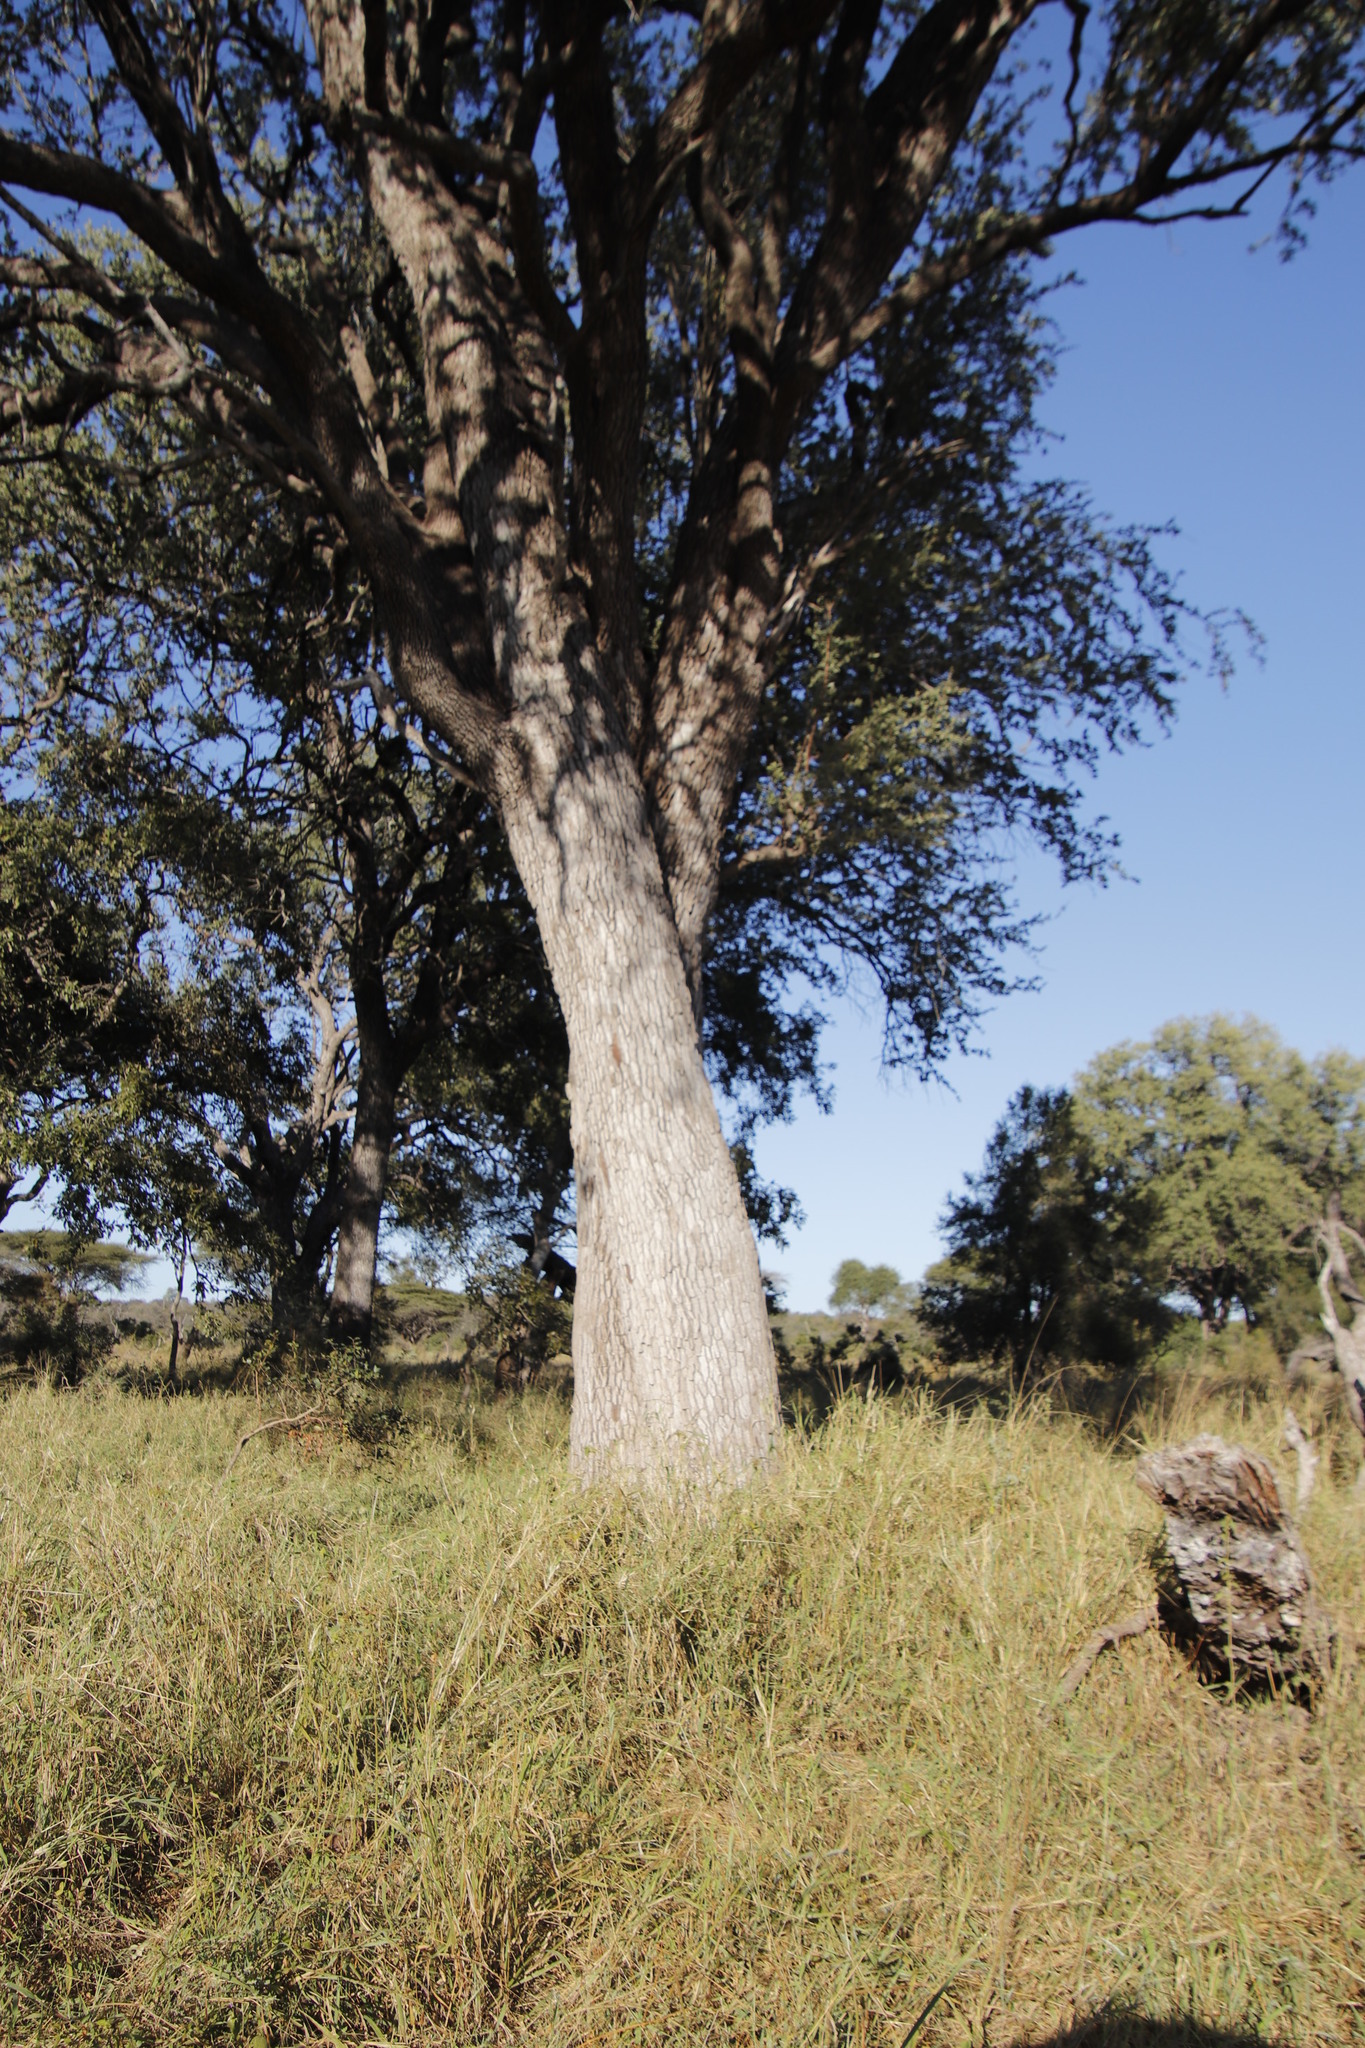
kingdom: Plantae
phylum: Tracheophyta
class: Magnoliopsida
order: Myrtales
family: Combretaceae
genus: Combretum
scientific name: Combretum imberbe
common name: Leadwood
